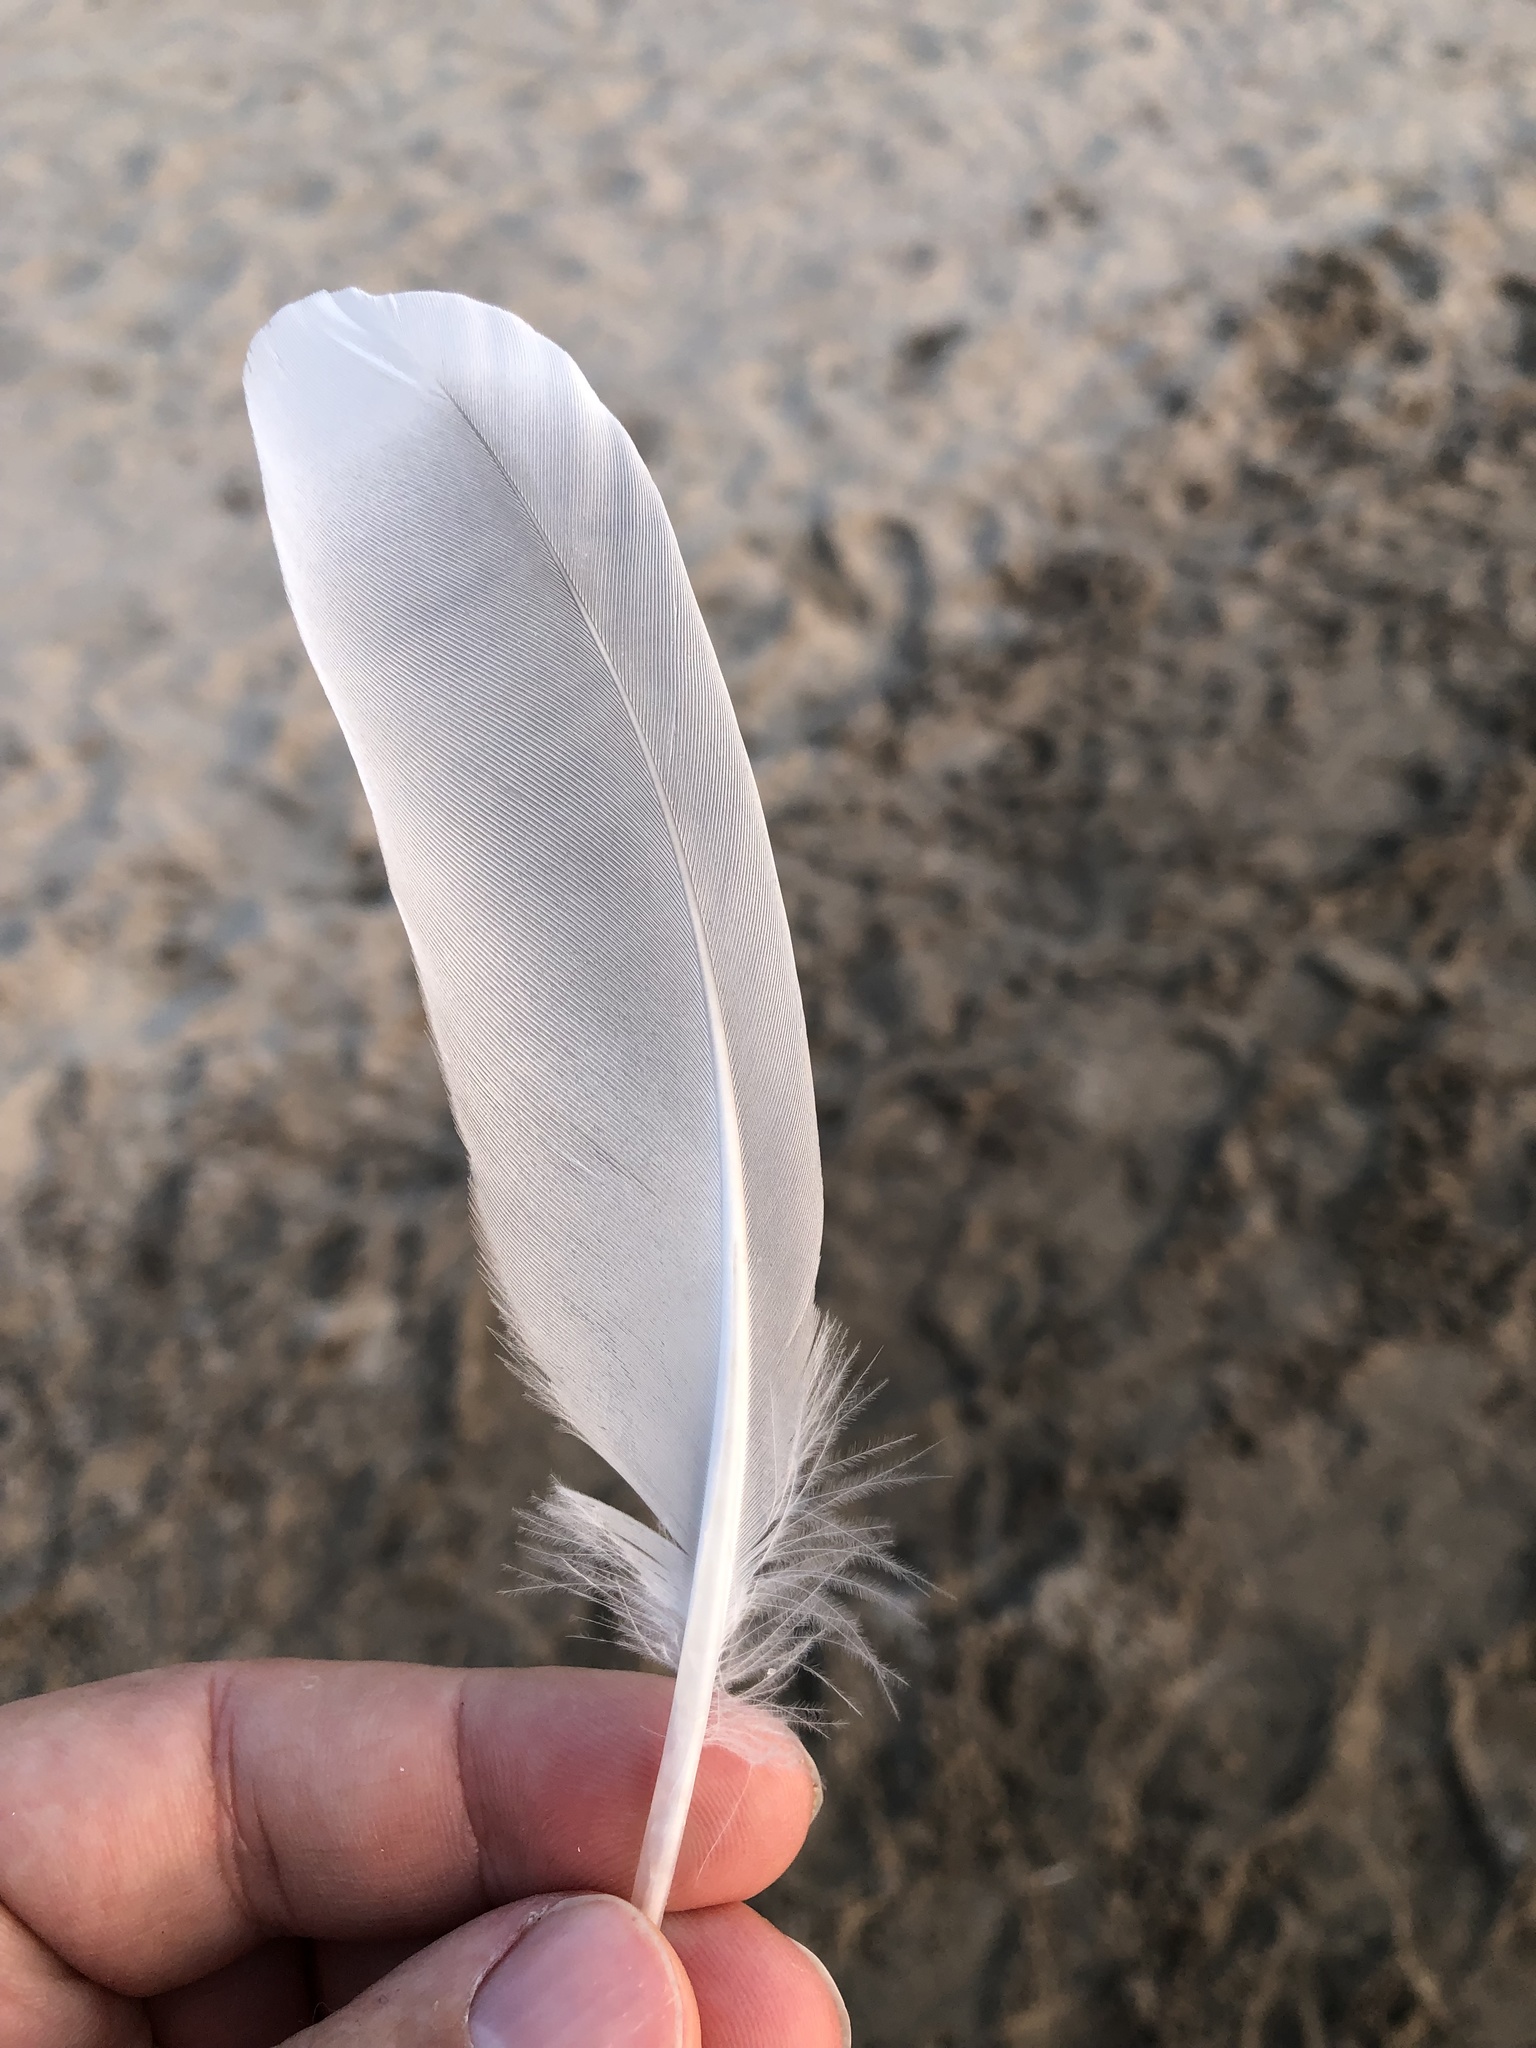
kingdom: Animalia
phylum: Chordata
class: Aves
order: Charadriiformes
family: Laridae
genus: Larus
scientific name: Larus delawarensis
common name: Ring-billed gull
